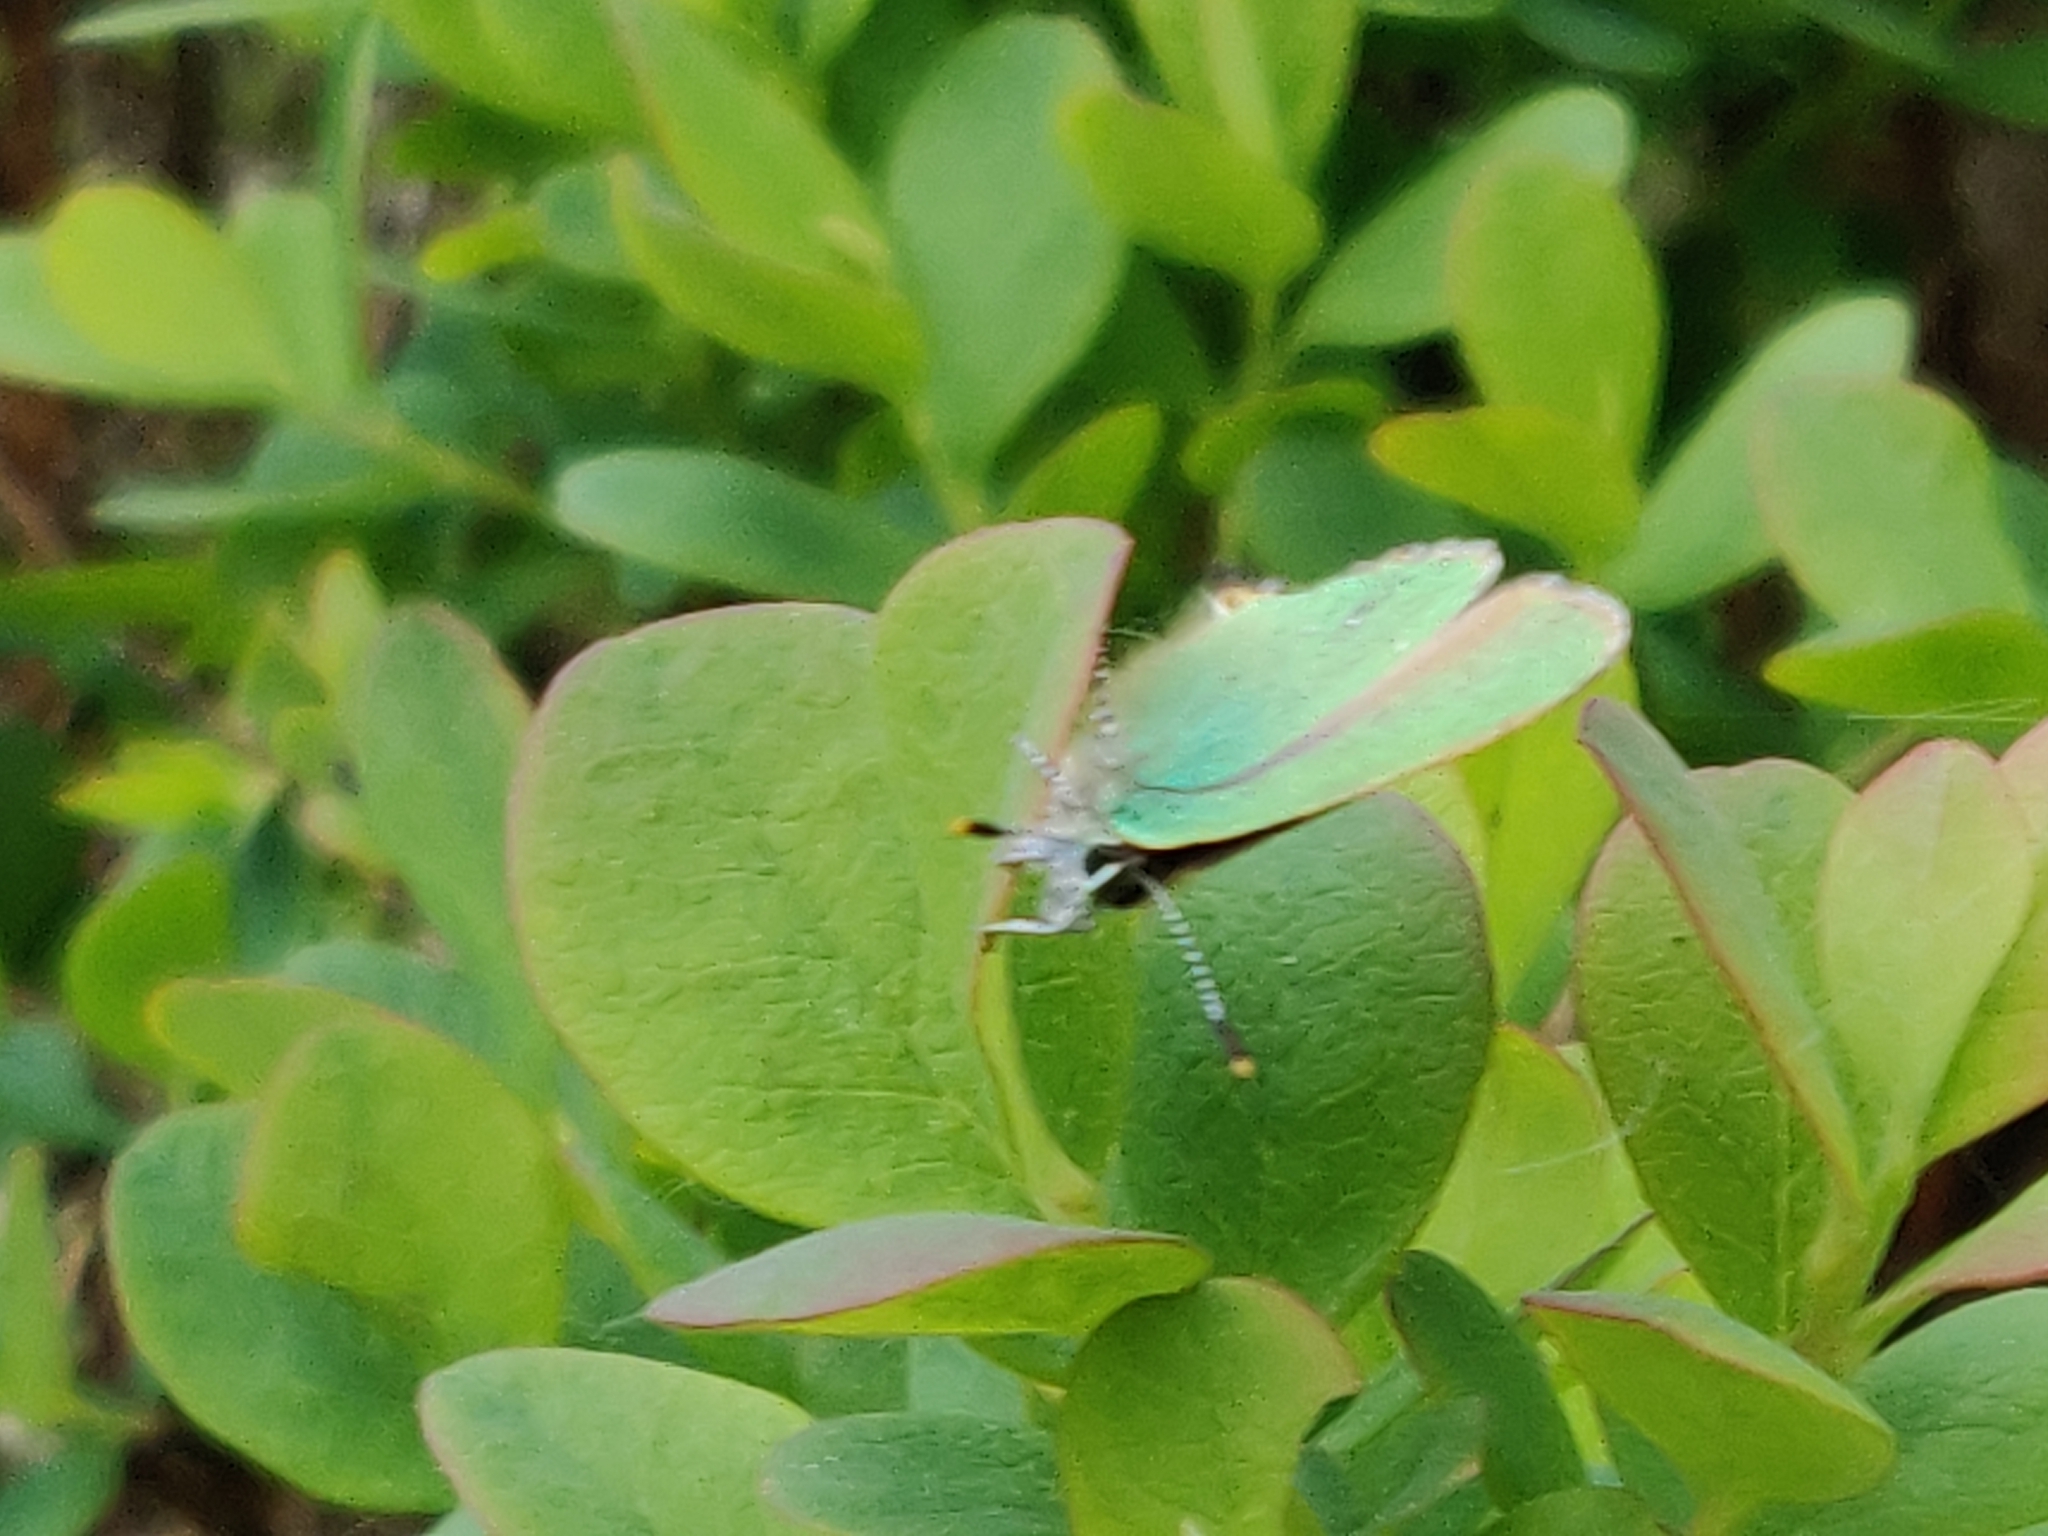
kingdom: Animalia
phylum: Arthropoda
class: Insecta
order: Lepidoptera
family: Lycaenidae
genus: Callophrys
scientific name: Callophrys rubi
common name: Green hairstreak
